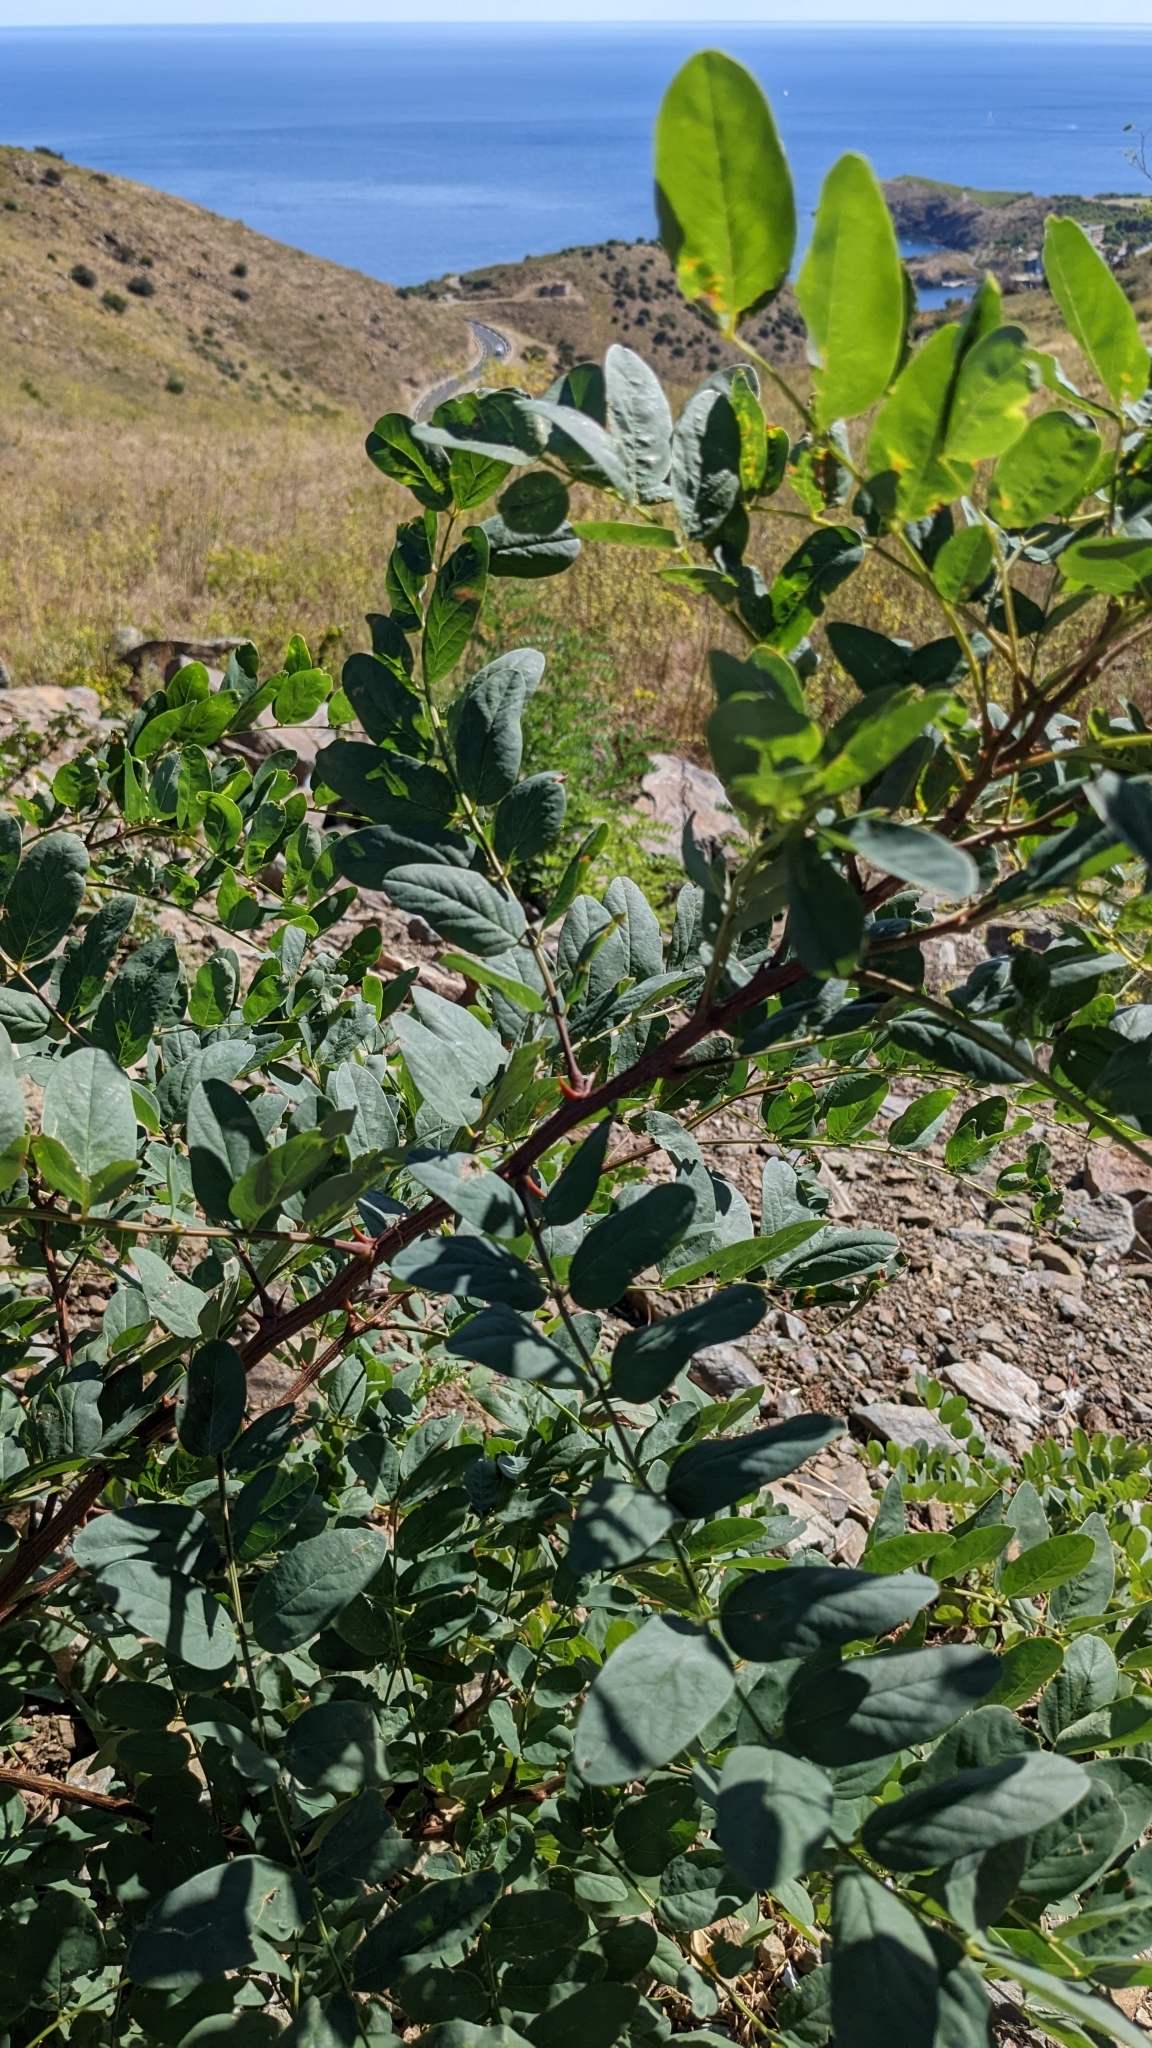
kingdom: Plantae
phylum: Tracheophyta
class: Magnoliopsida
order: Fabales
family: Fabaceae
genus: Robinia
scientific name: Robinia pseudoacacia
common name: Black locust
